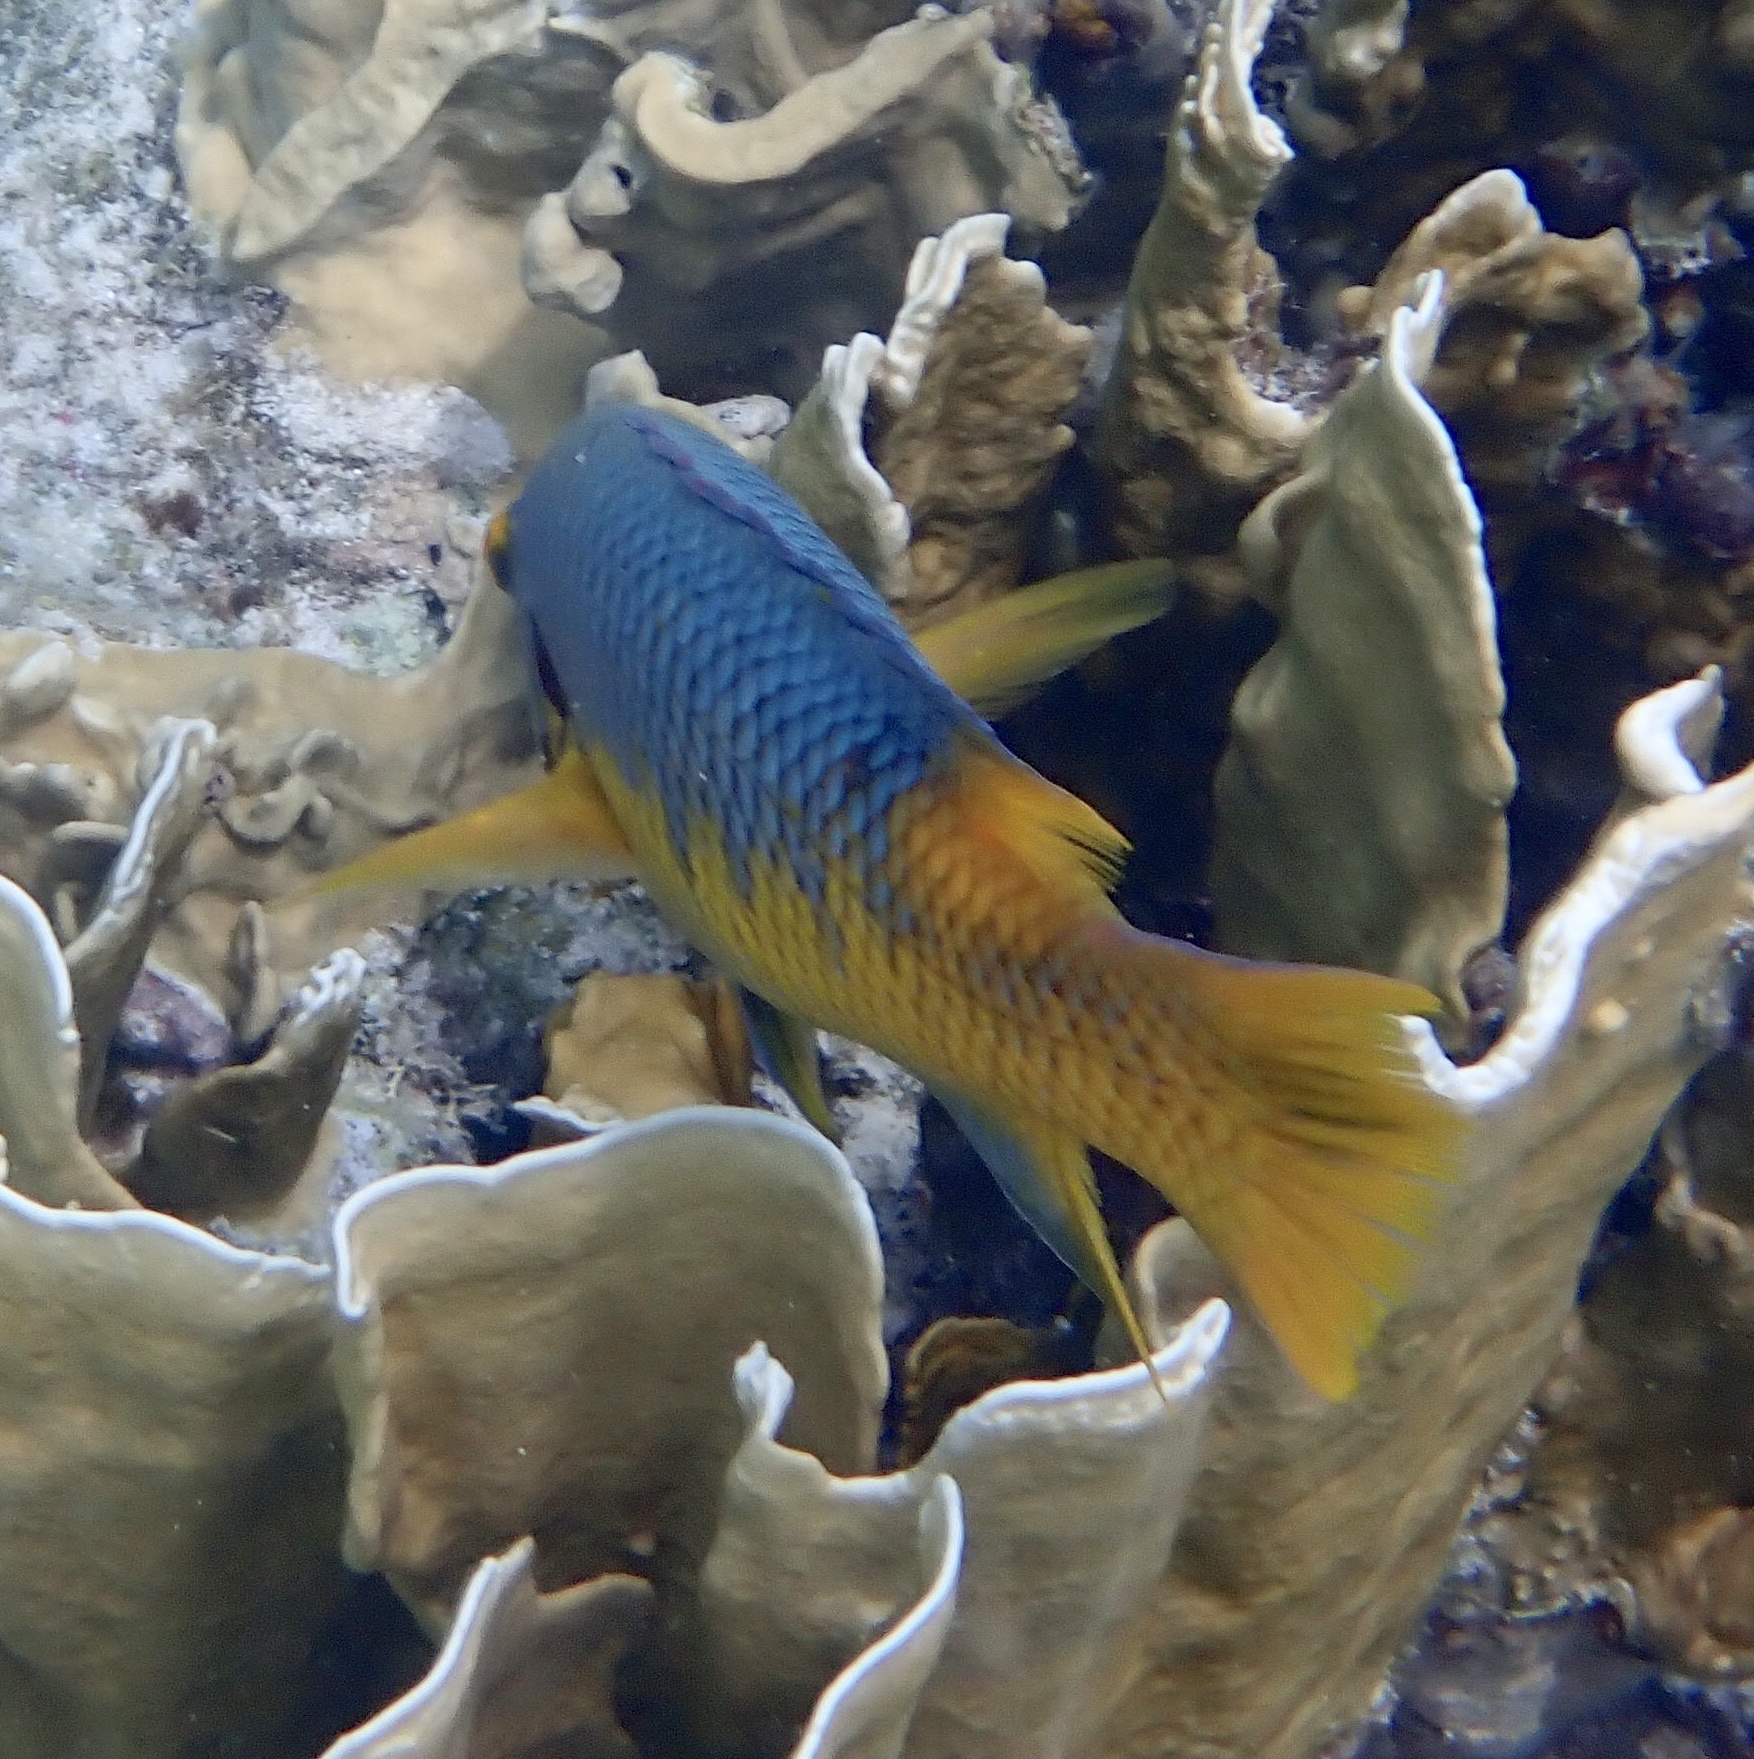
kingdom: Animalia
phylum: Chordata
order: Perciformes
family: Labridae
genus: Bodianus
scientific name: Bodianus rufus
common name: Spanish hogfish
